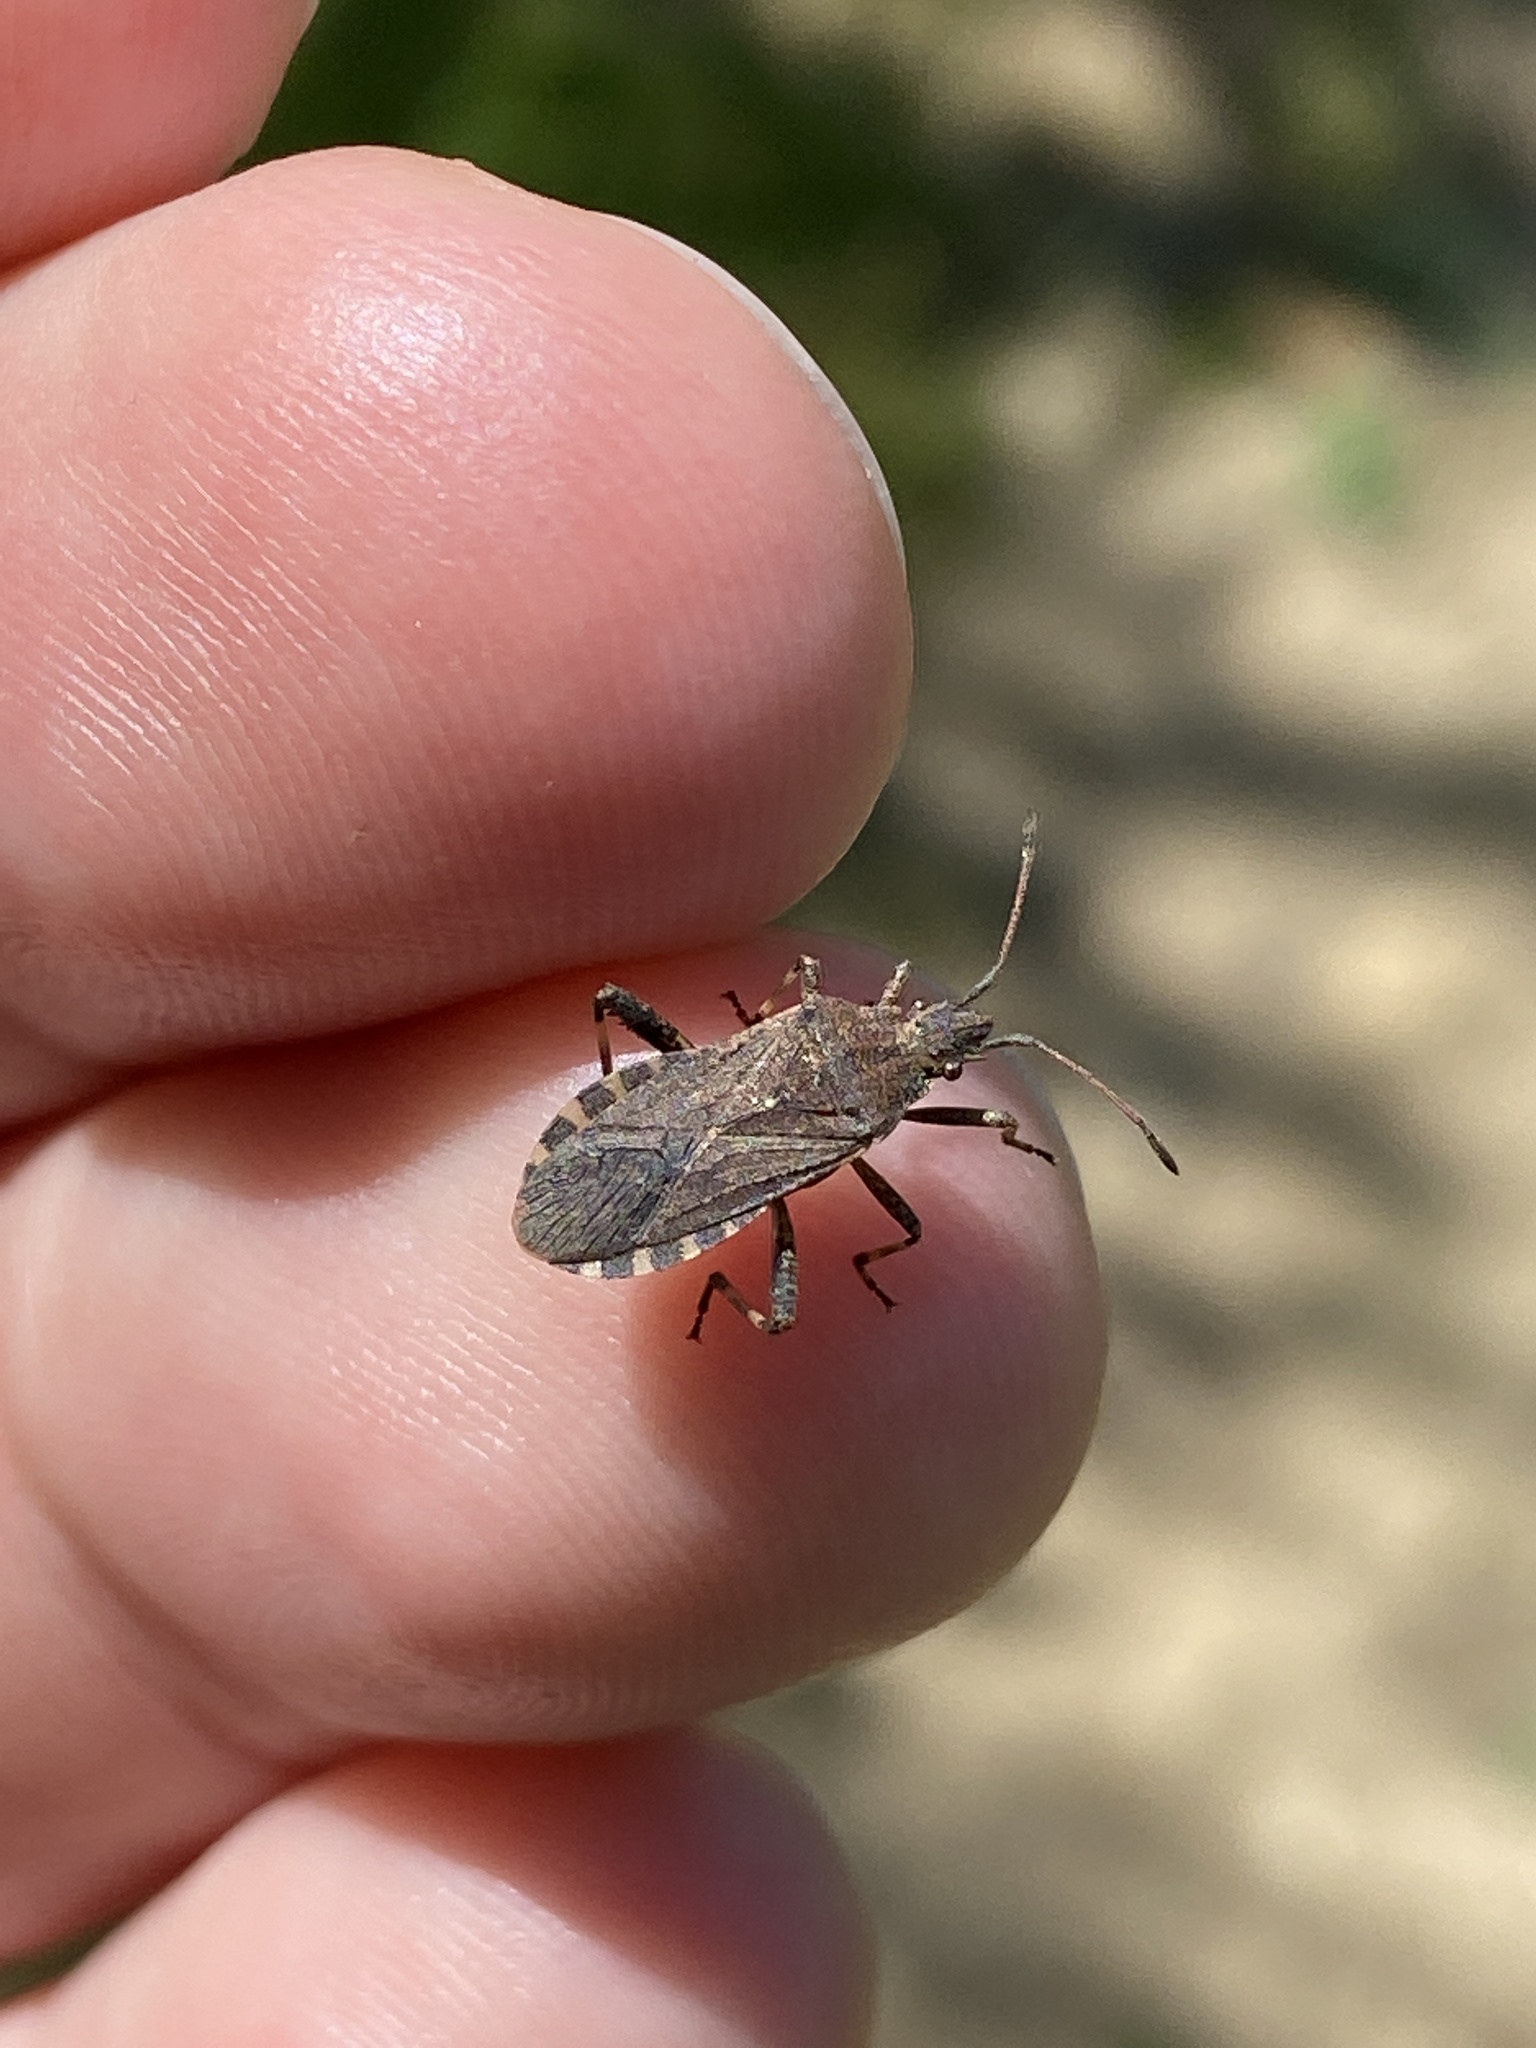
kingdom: Animalia
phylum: Arthropoda
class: Insecta
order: Hemiptera
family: Coreidae
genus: Ceraleptus
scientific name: Ceraleptus gracilicornis
